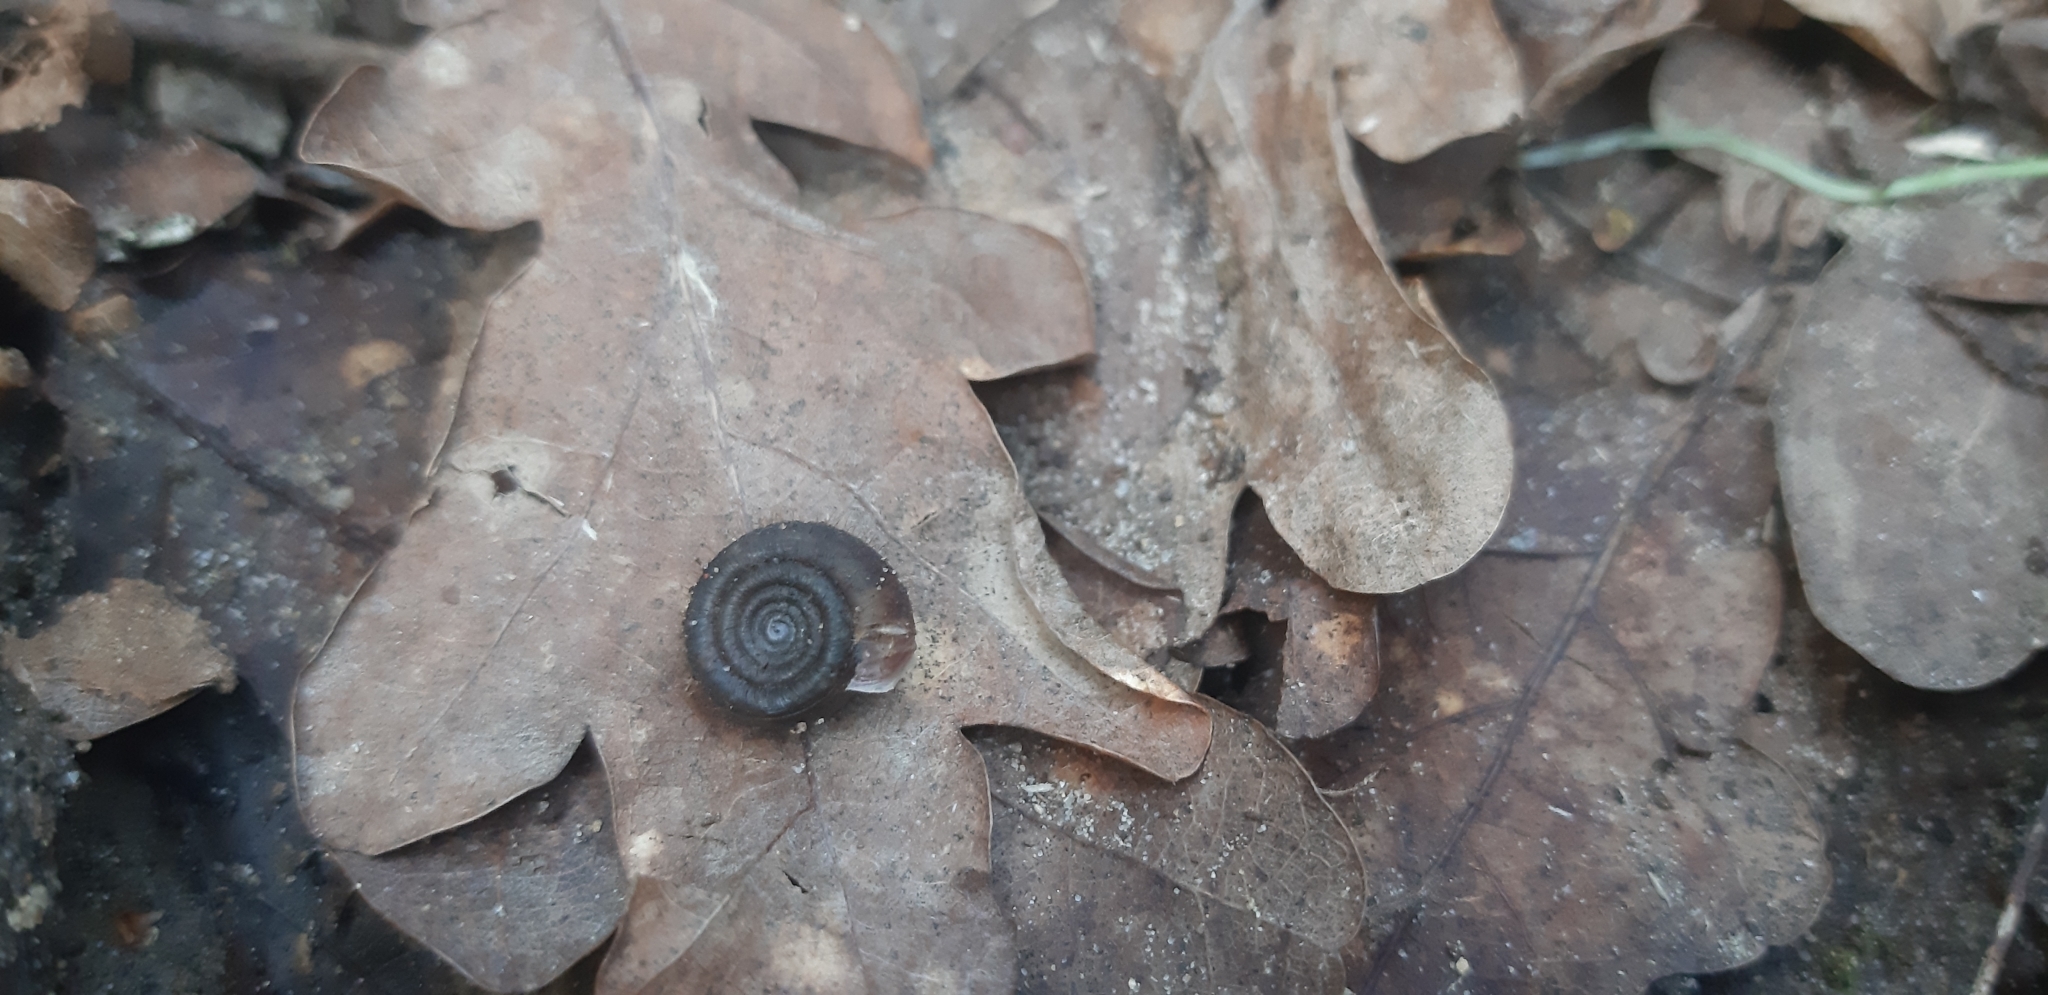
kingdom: Animalia
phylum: Mollusca
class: Gastropoda
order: Stylommatophora
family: Helicodontidae
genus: Helicodonta
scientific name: Helicodonta obvoluta
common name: Cheese snail
